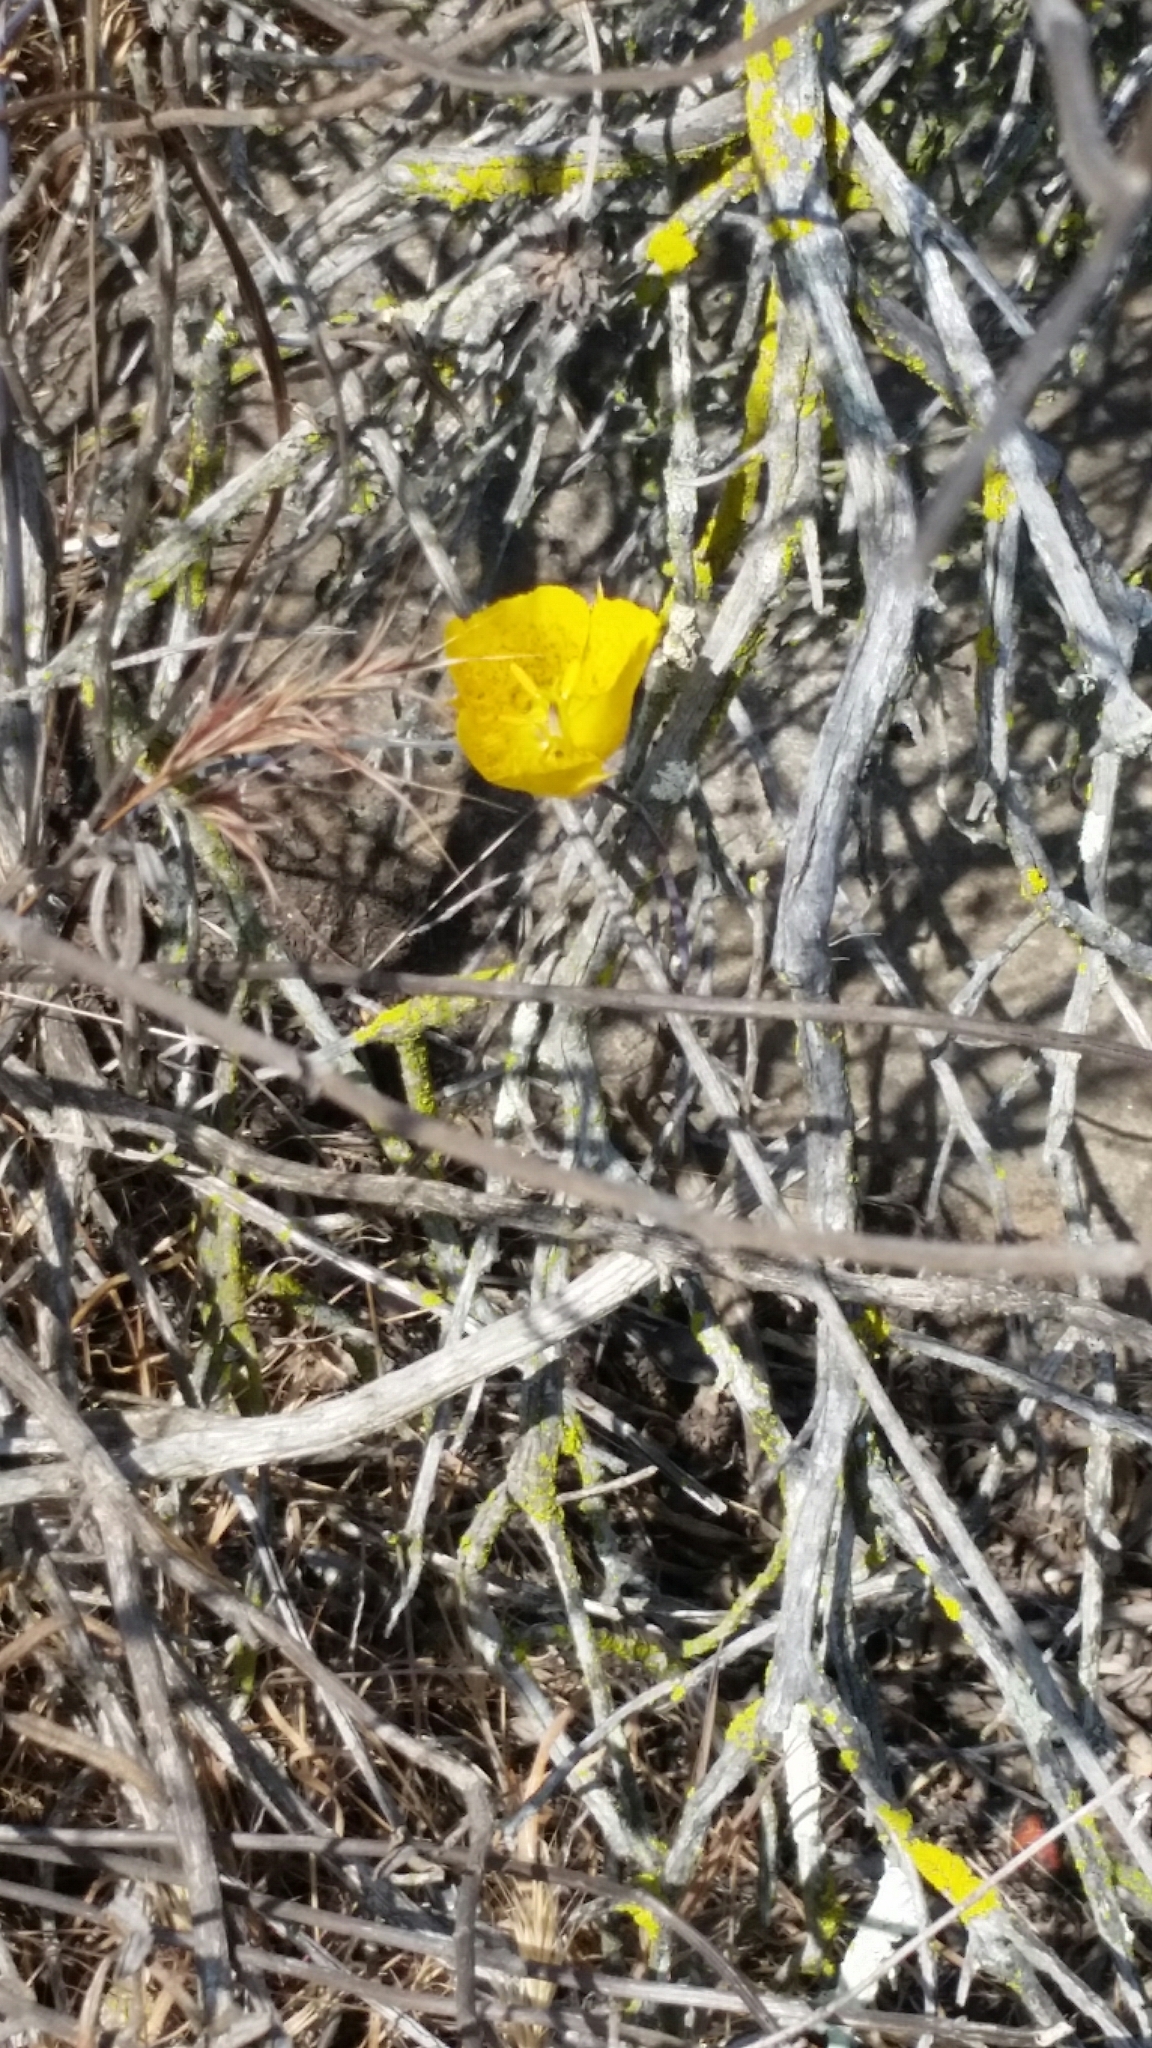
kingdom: Plantae
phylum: Tracheophyta
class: Liliopsida
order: Liliales
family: Liliaceae
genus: Calochortus
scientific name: Calochortus weedii
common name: Weed's mariposa-lily
